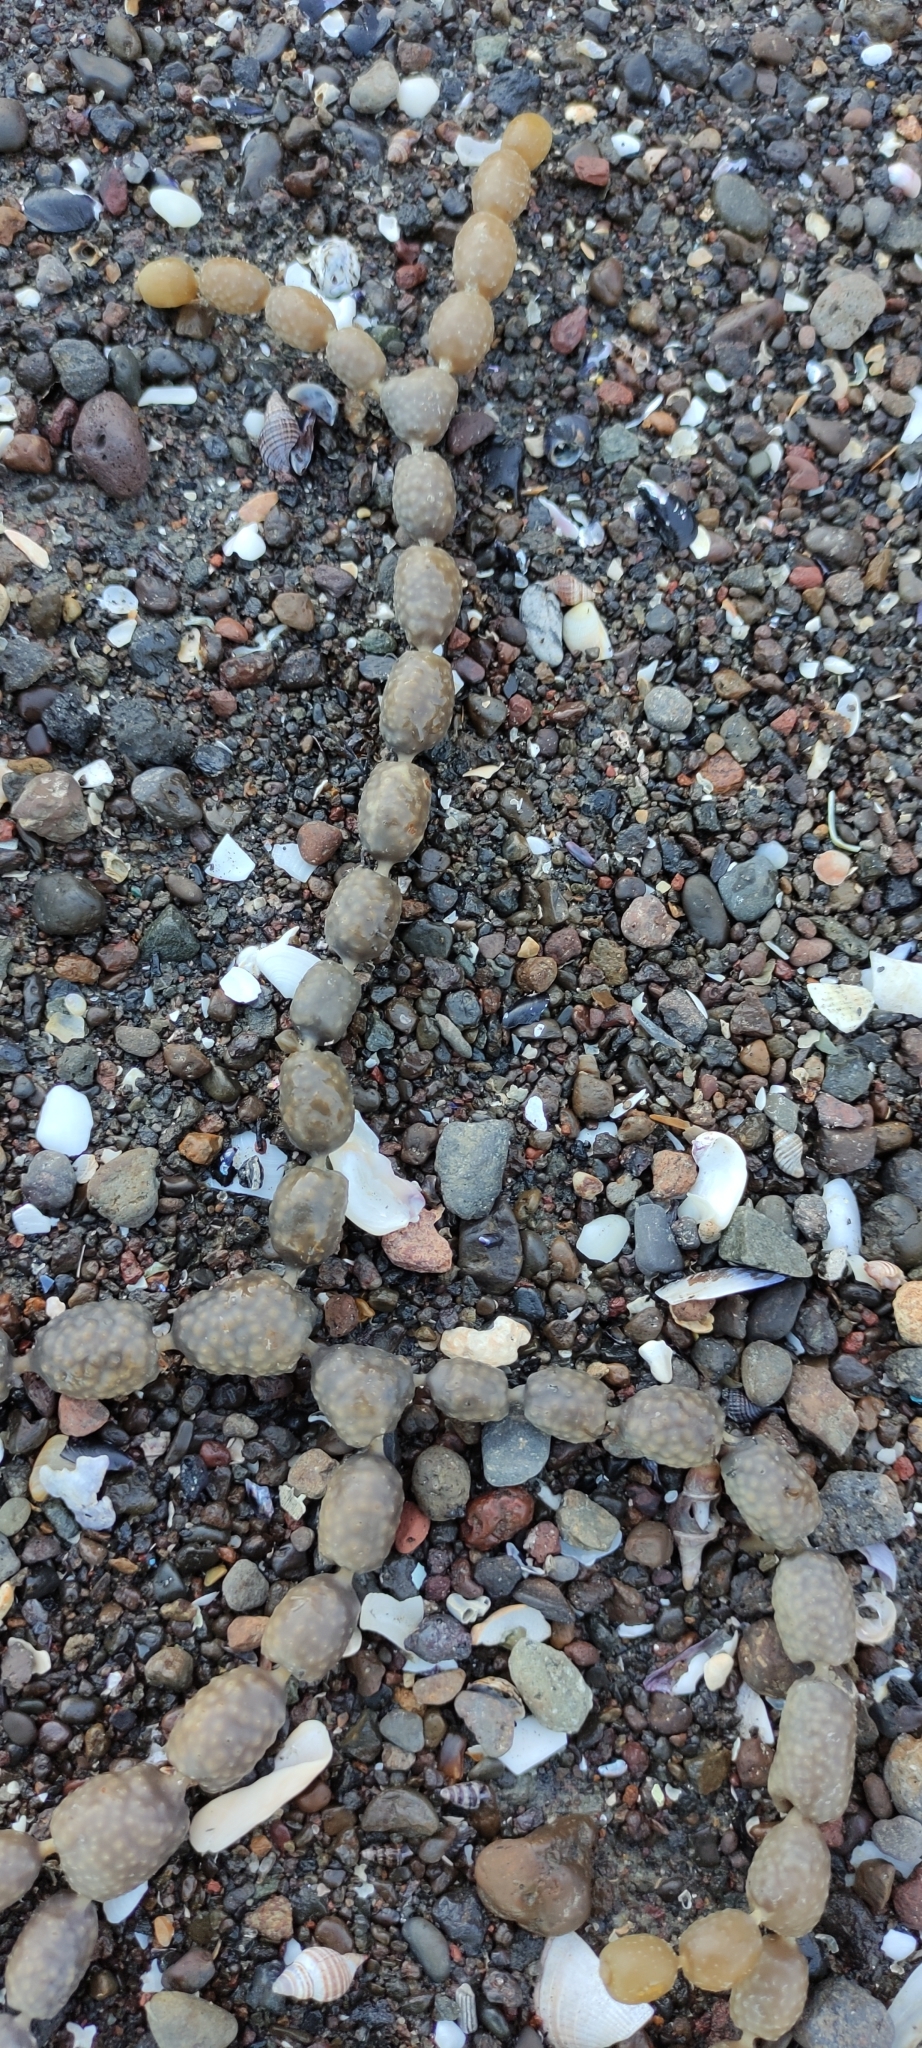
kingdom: Chromista
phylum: Ochrophyta
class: Phaeophyceae
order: Fucales
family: Hormosiraceae
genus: Hormosira
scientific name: Hormosira banksii
